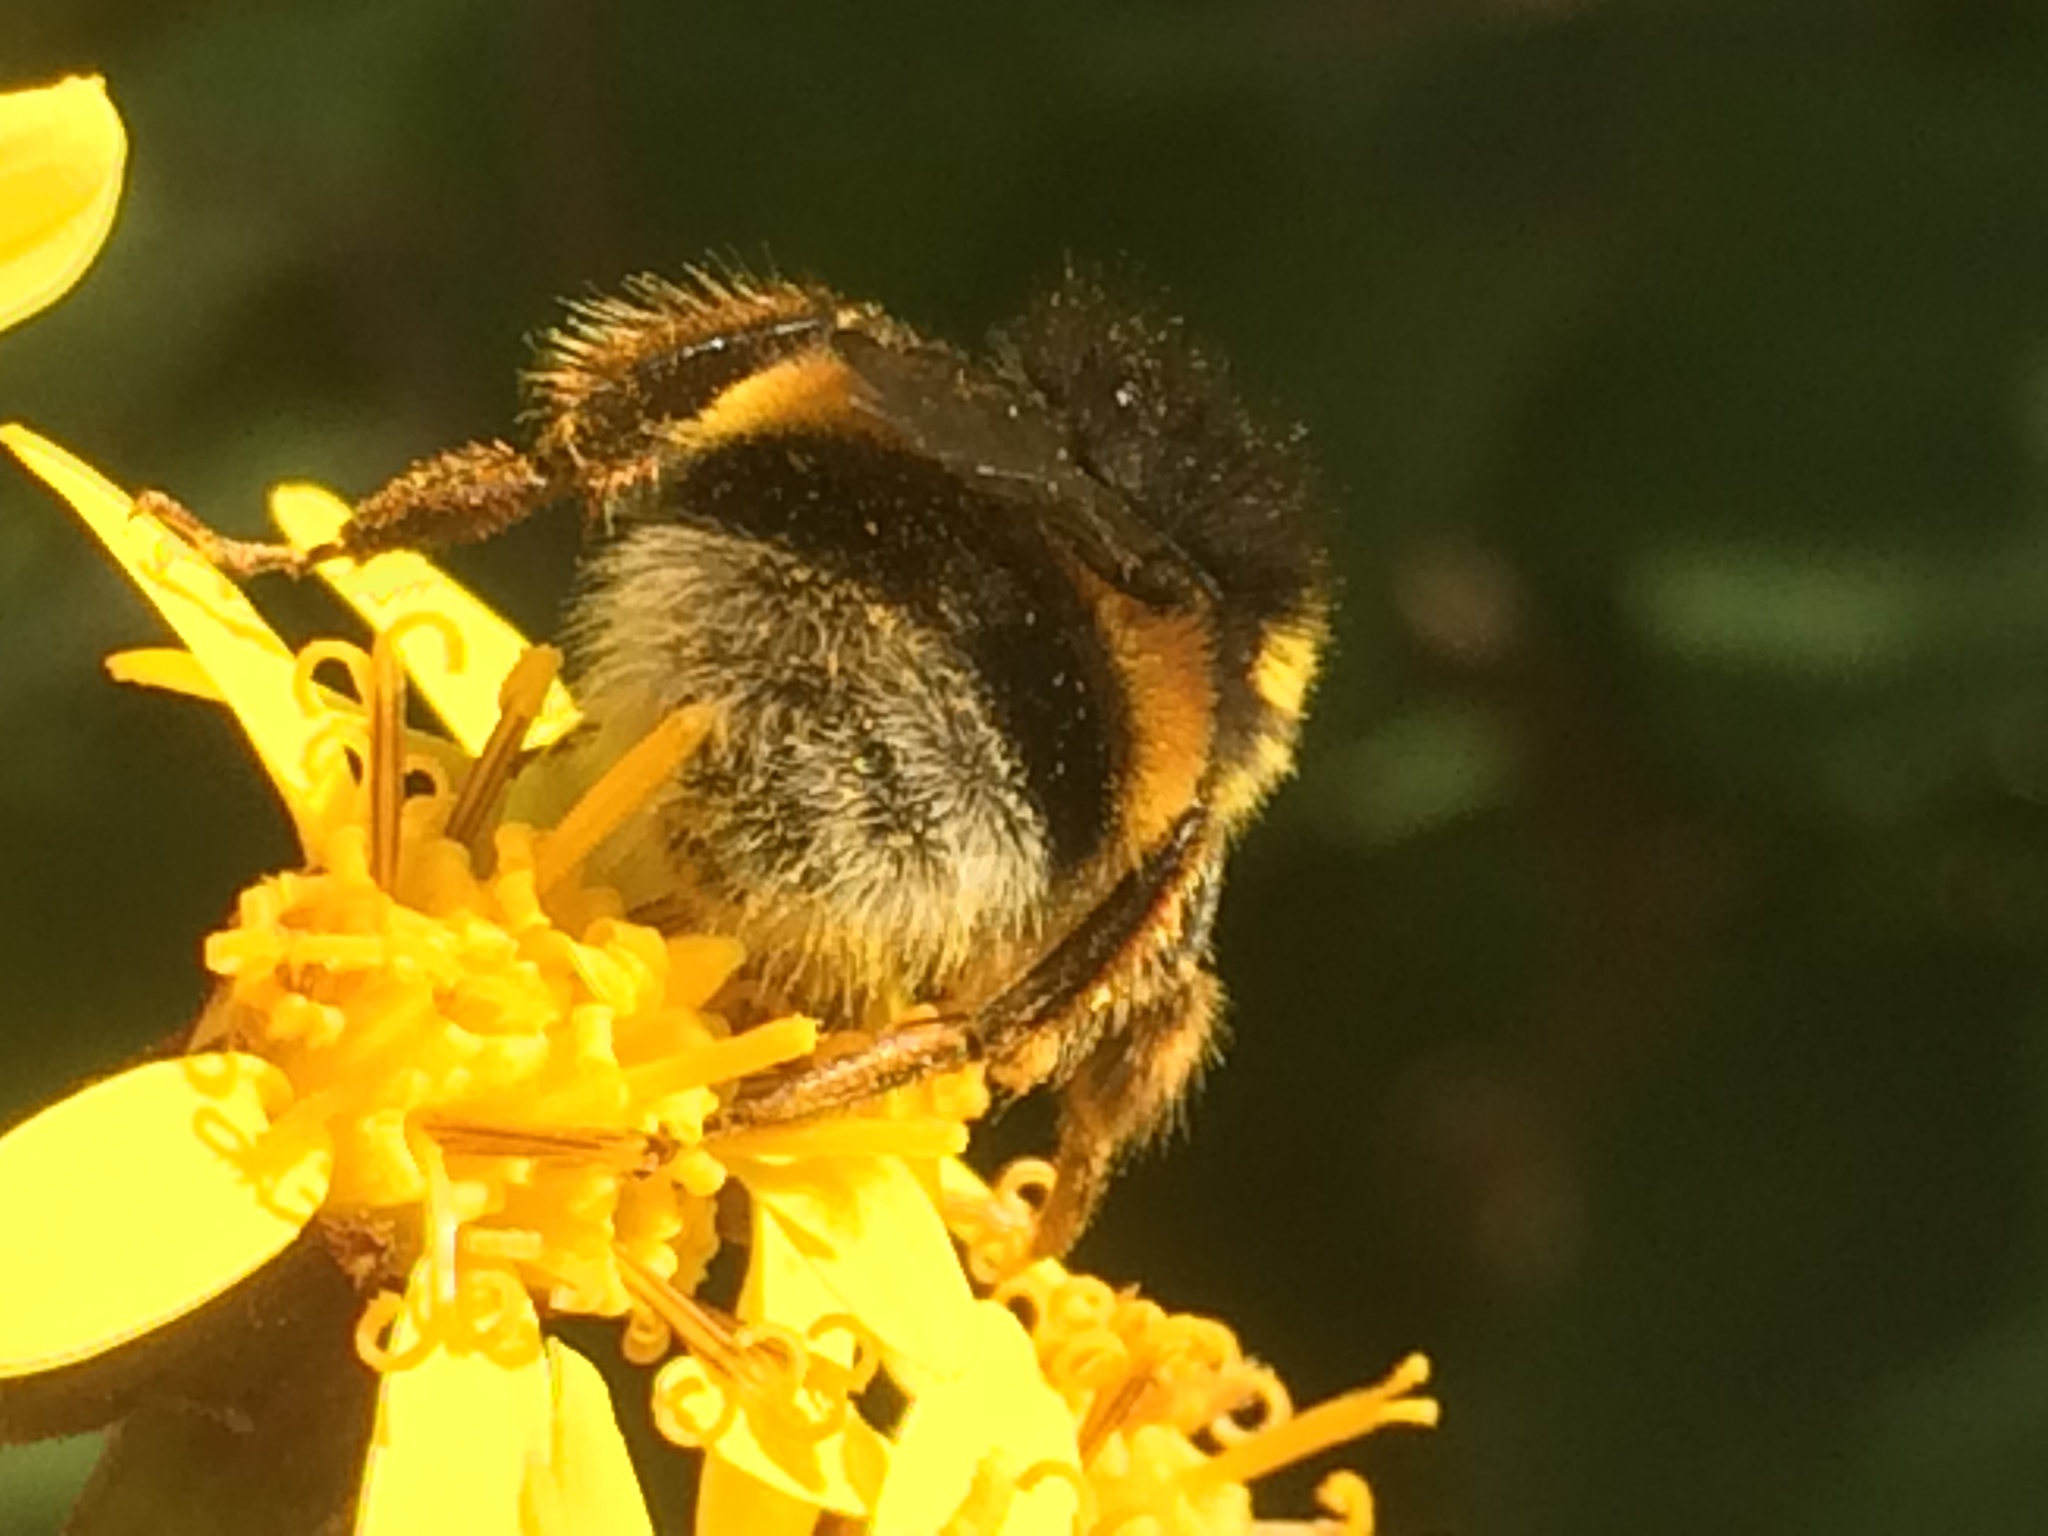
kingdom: Animalia
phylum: Arthropoda
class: Insecta
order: Hymenoptera
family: Apidae
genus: Bombus
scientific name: Bombus terrestris
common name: Buff-tailed bumblebee
